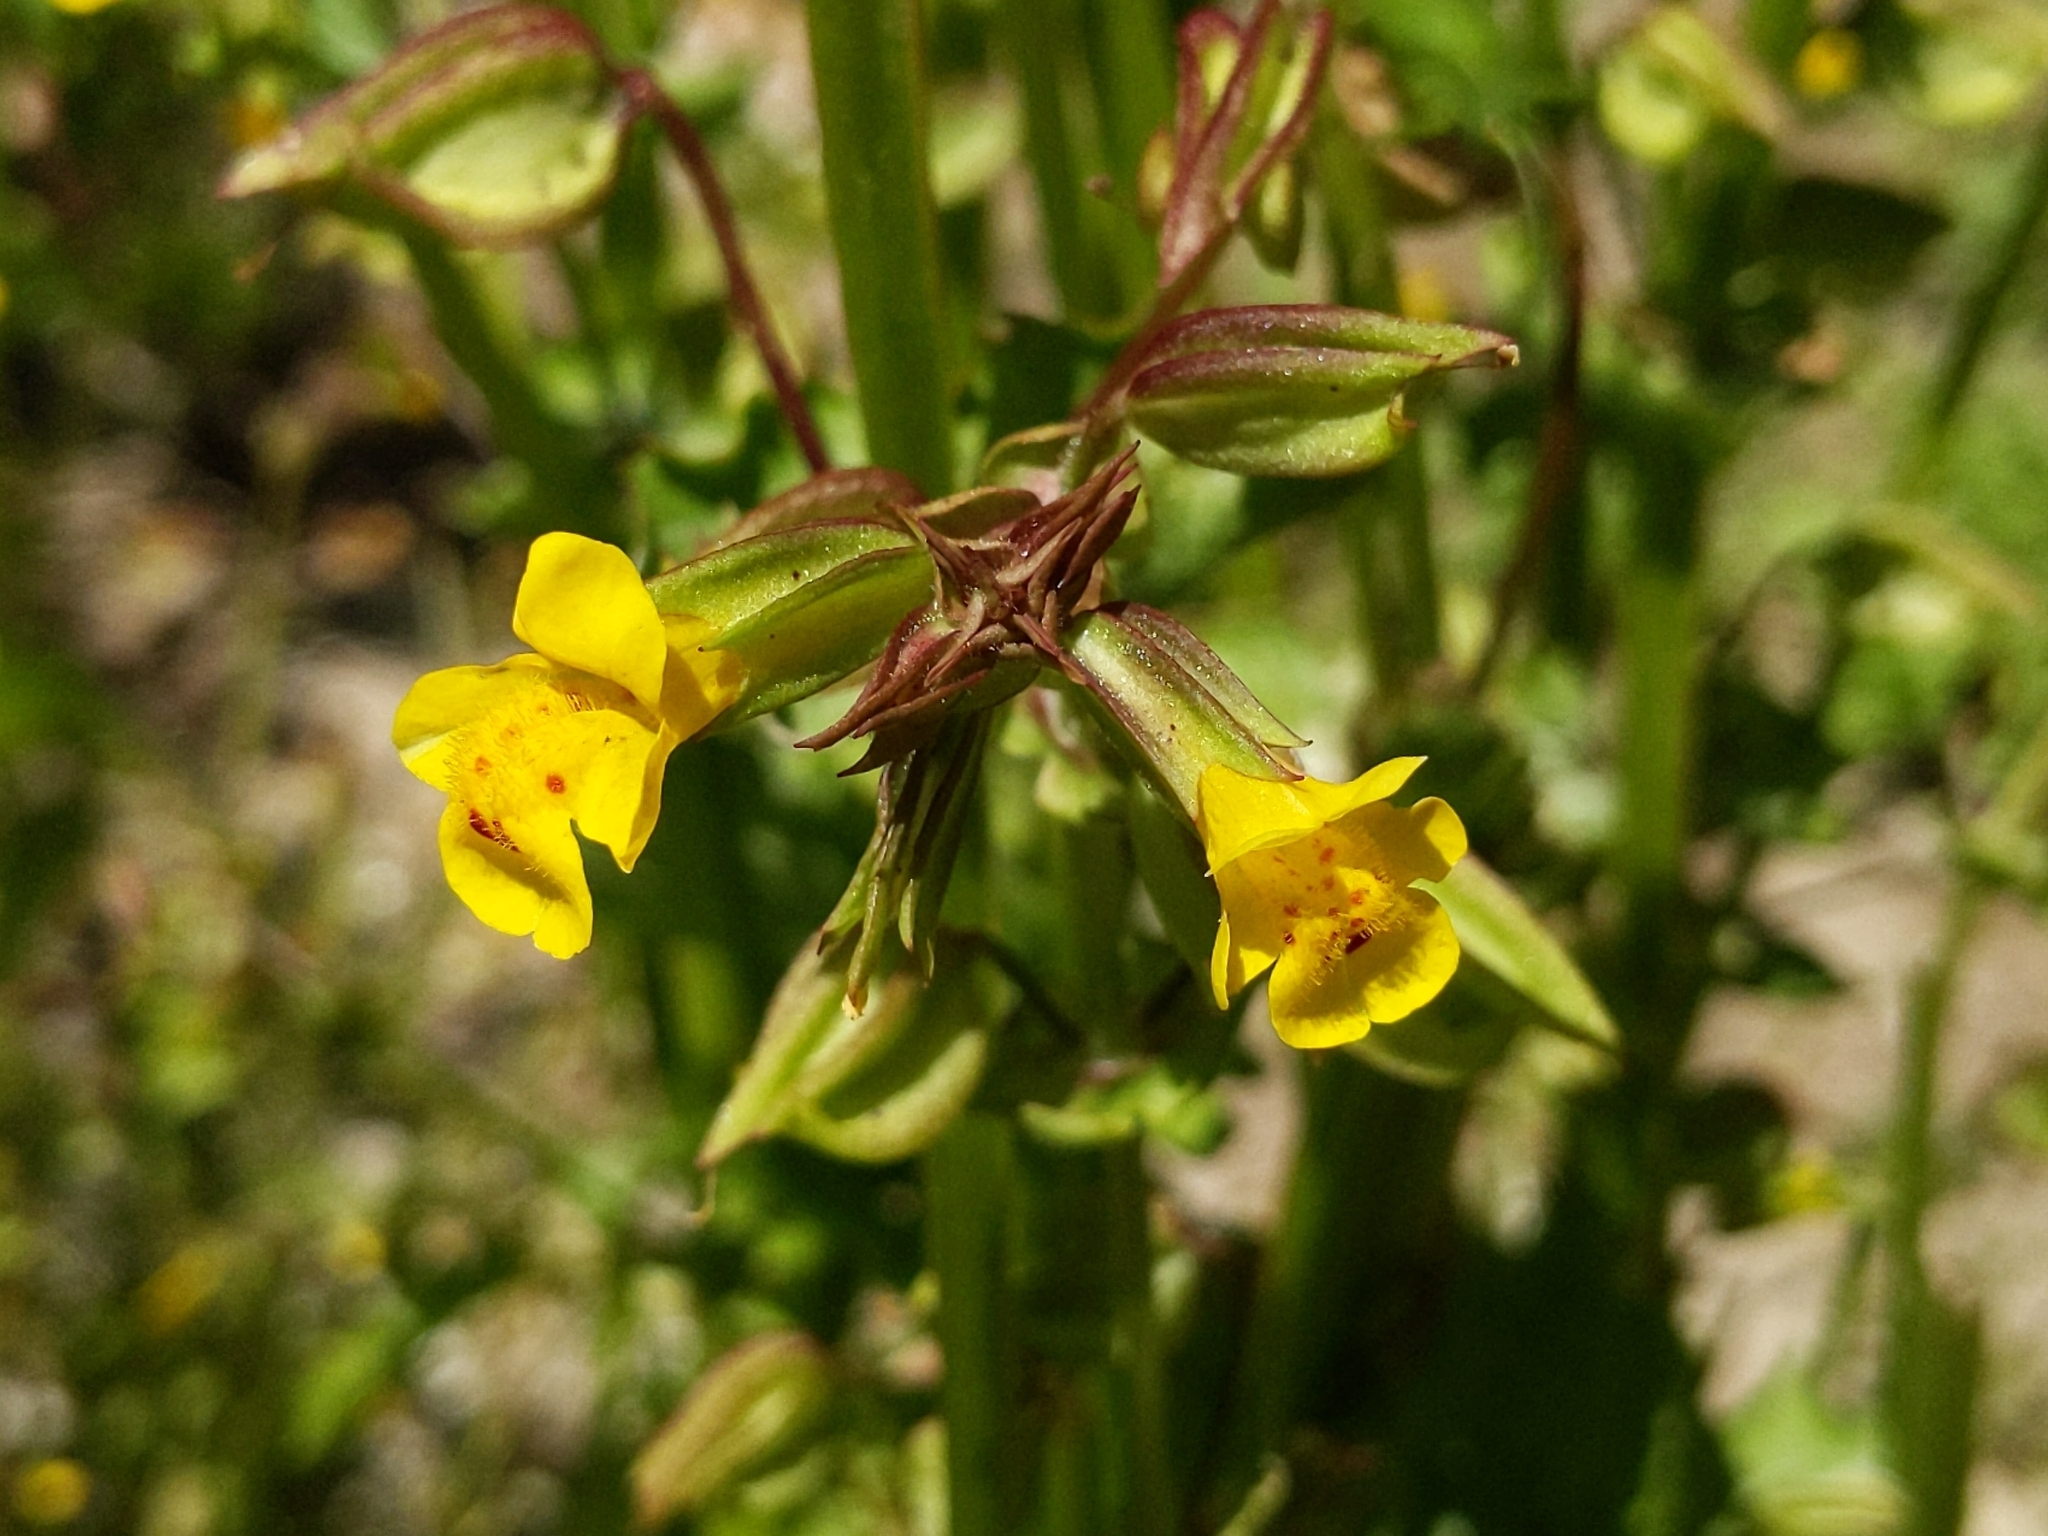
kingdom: Plantae
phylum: Tracheophyta
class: Magnoliopsida
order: Lamiales
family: Phrymaceae
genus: Erythranthe
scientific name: Erythranthe nasuta
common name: Sooke monkeyflower
